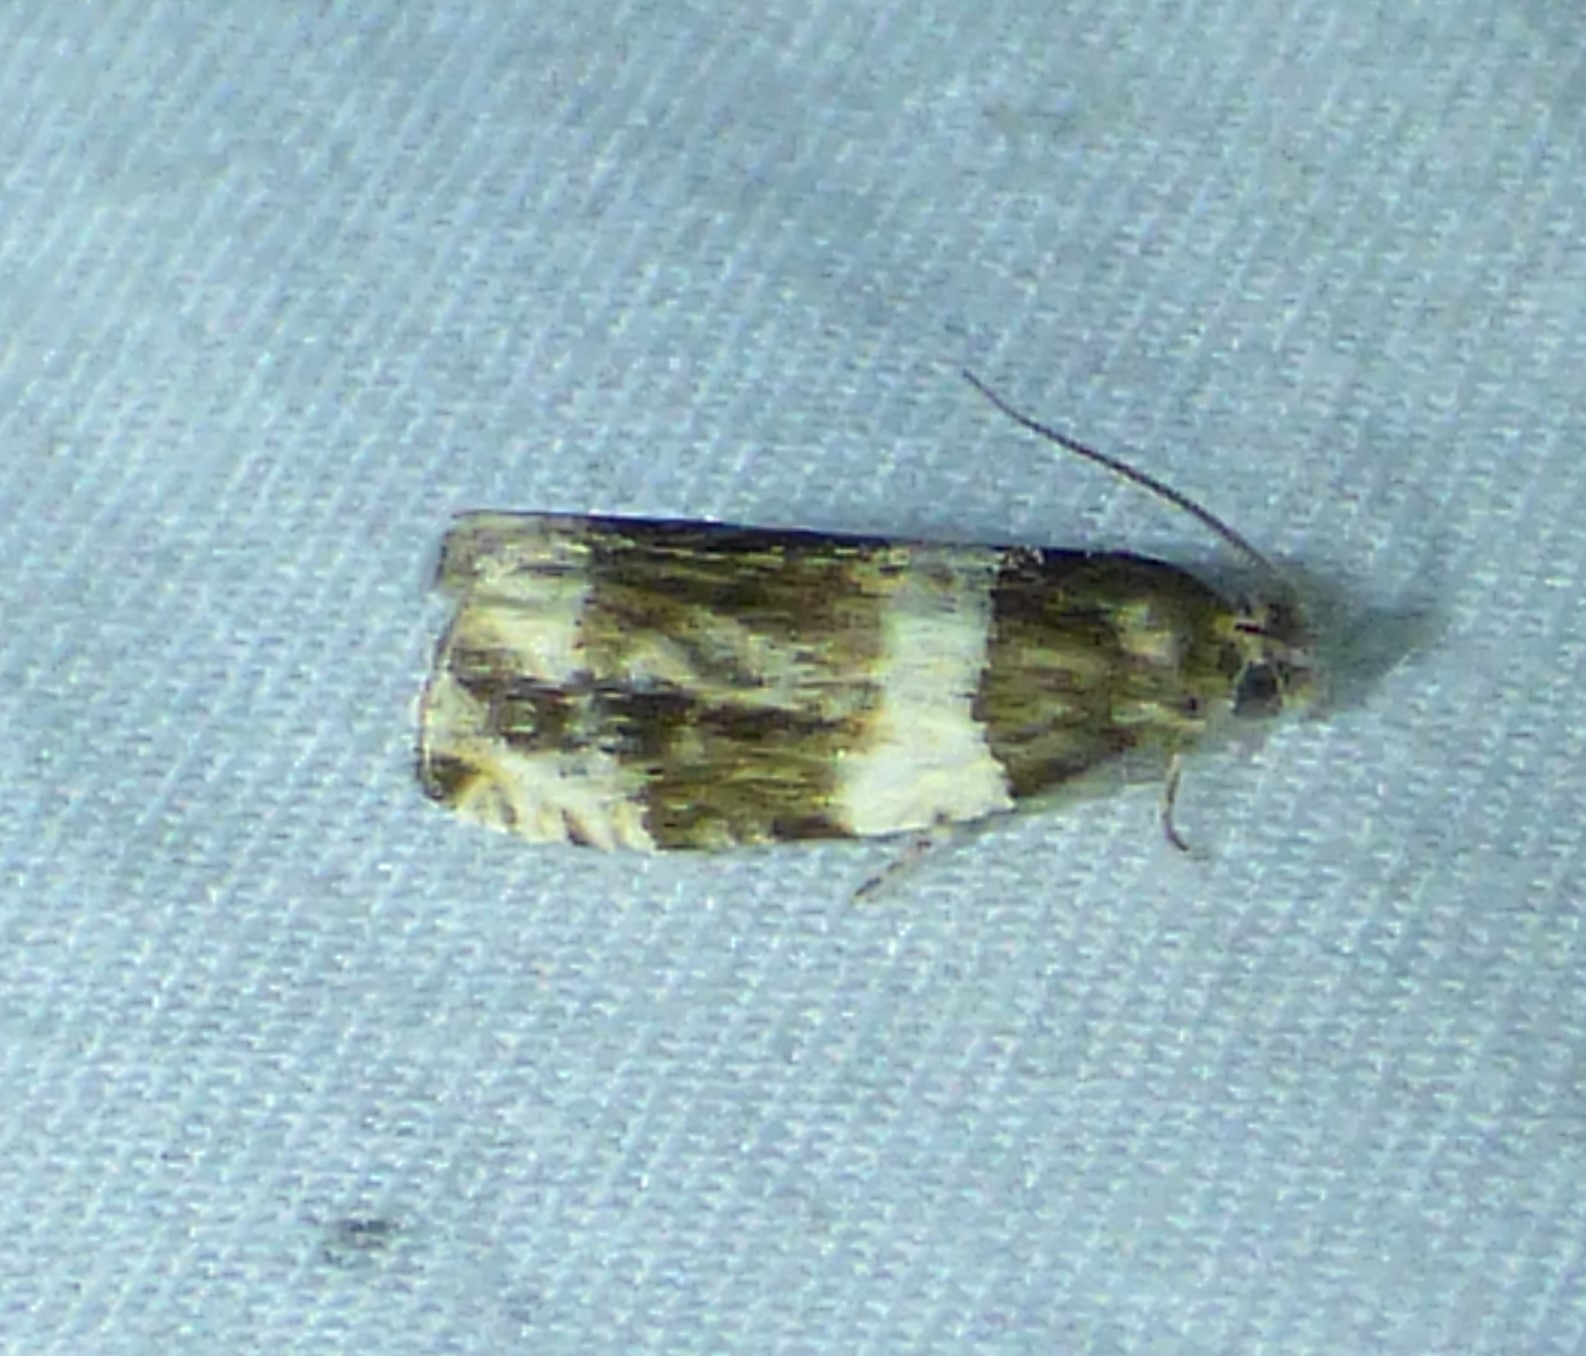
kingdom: Animalia
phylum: Arthropoda
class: Insecta
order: Lepidoptera
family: Tortricidae
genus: Olethreutes
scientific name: Olethreutes fasciatana
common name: Banded olethreutes moth
